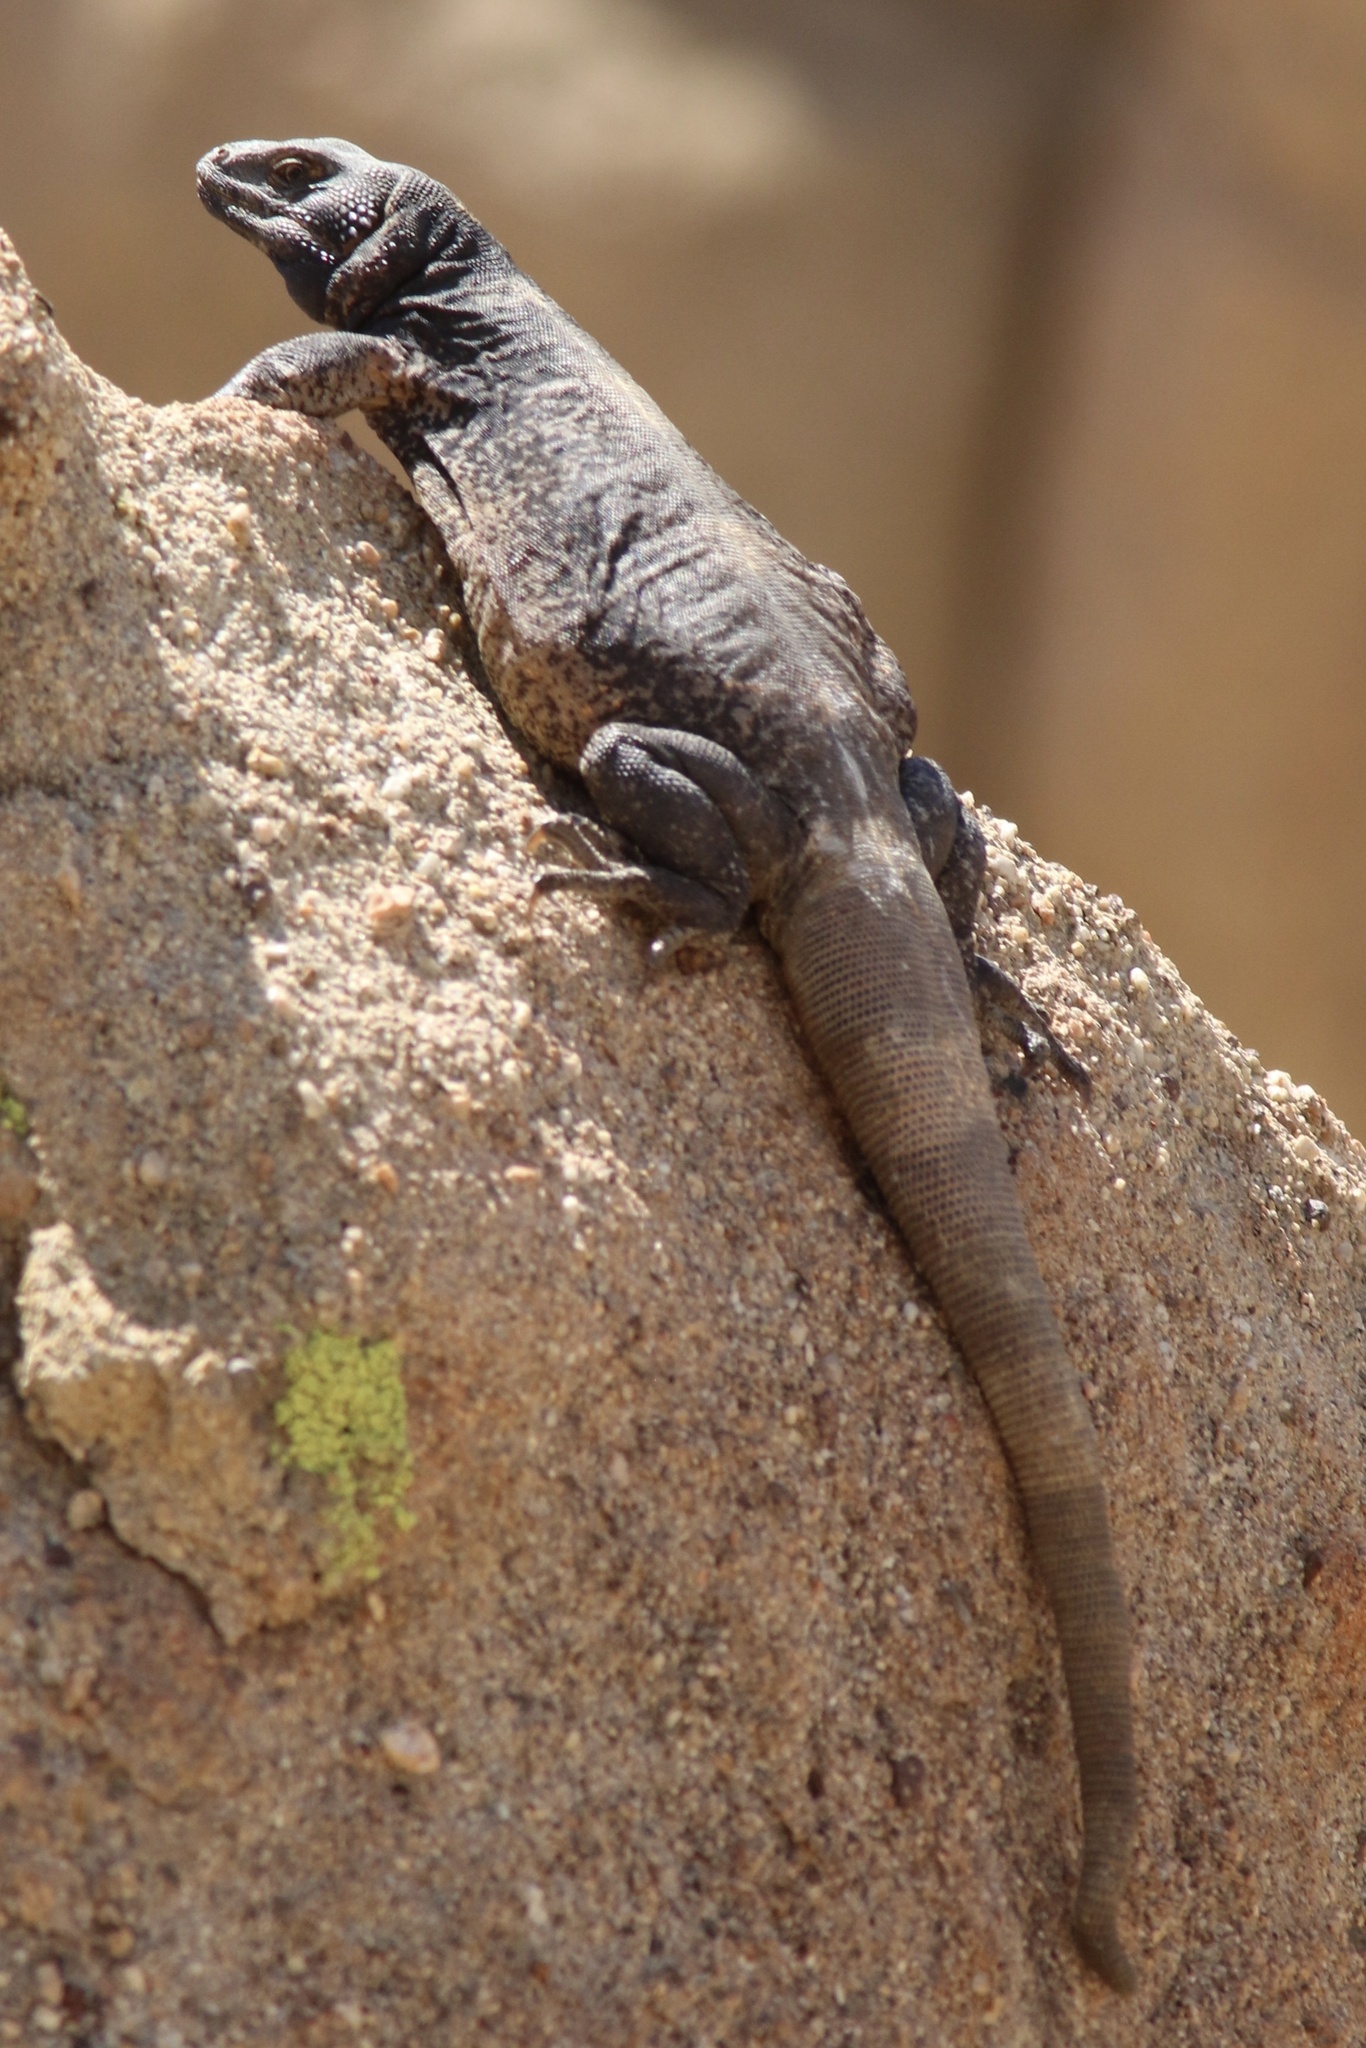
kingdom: Animalia
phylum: Chordata
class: Squamata
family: Iguanidae
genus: Sauromalus
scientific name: Sauromalus ater
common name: Northern chuckwalla
